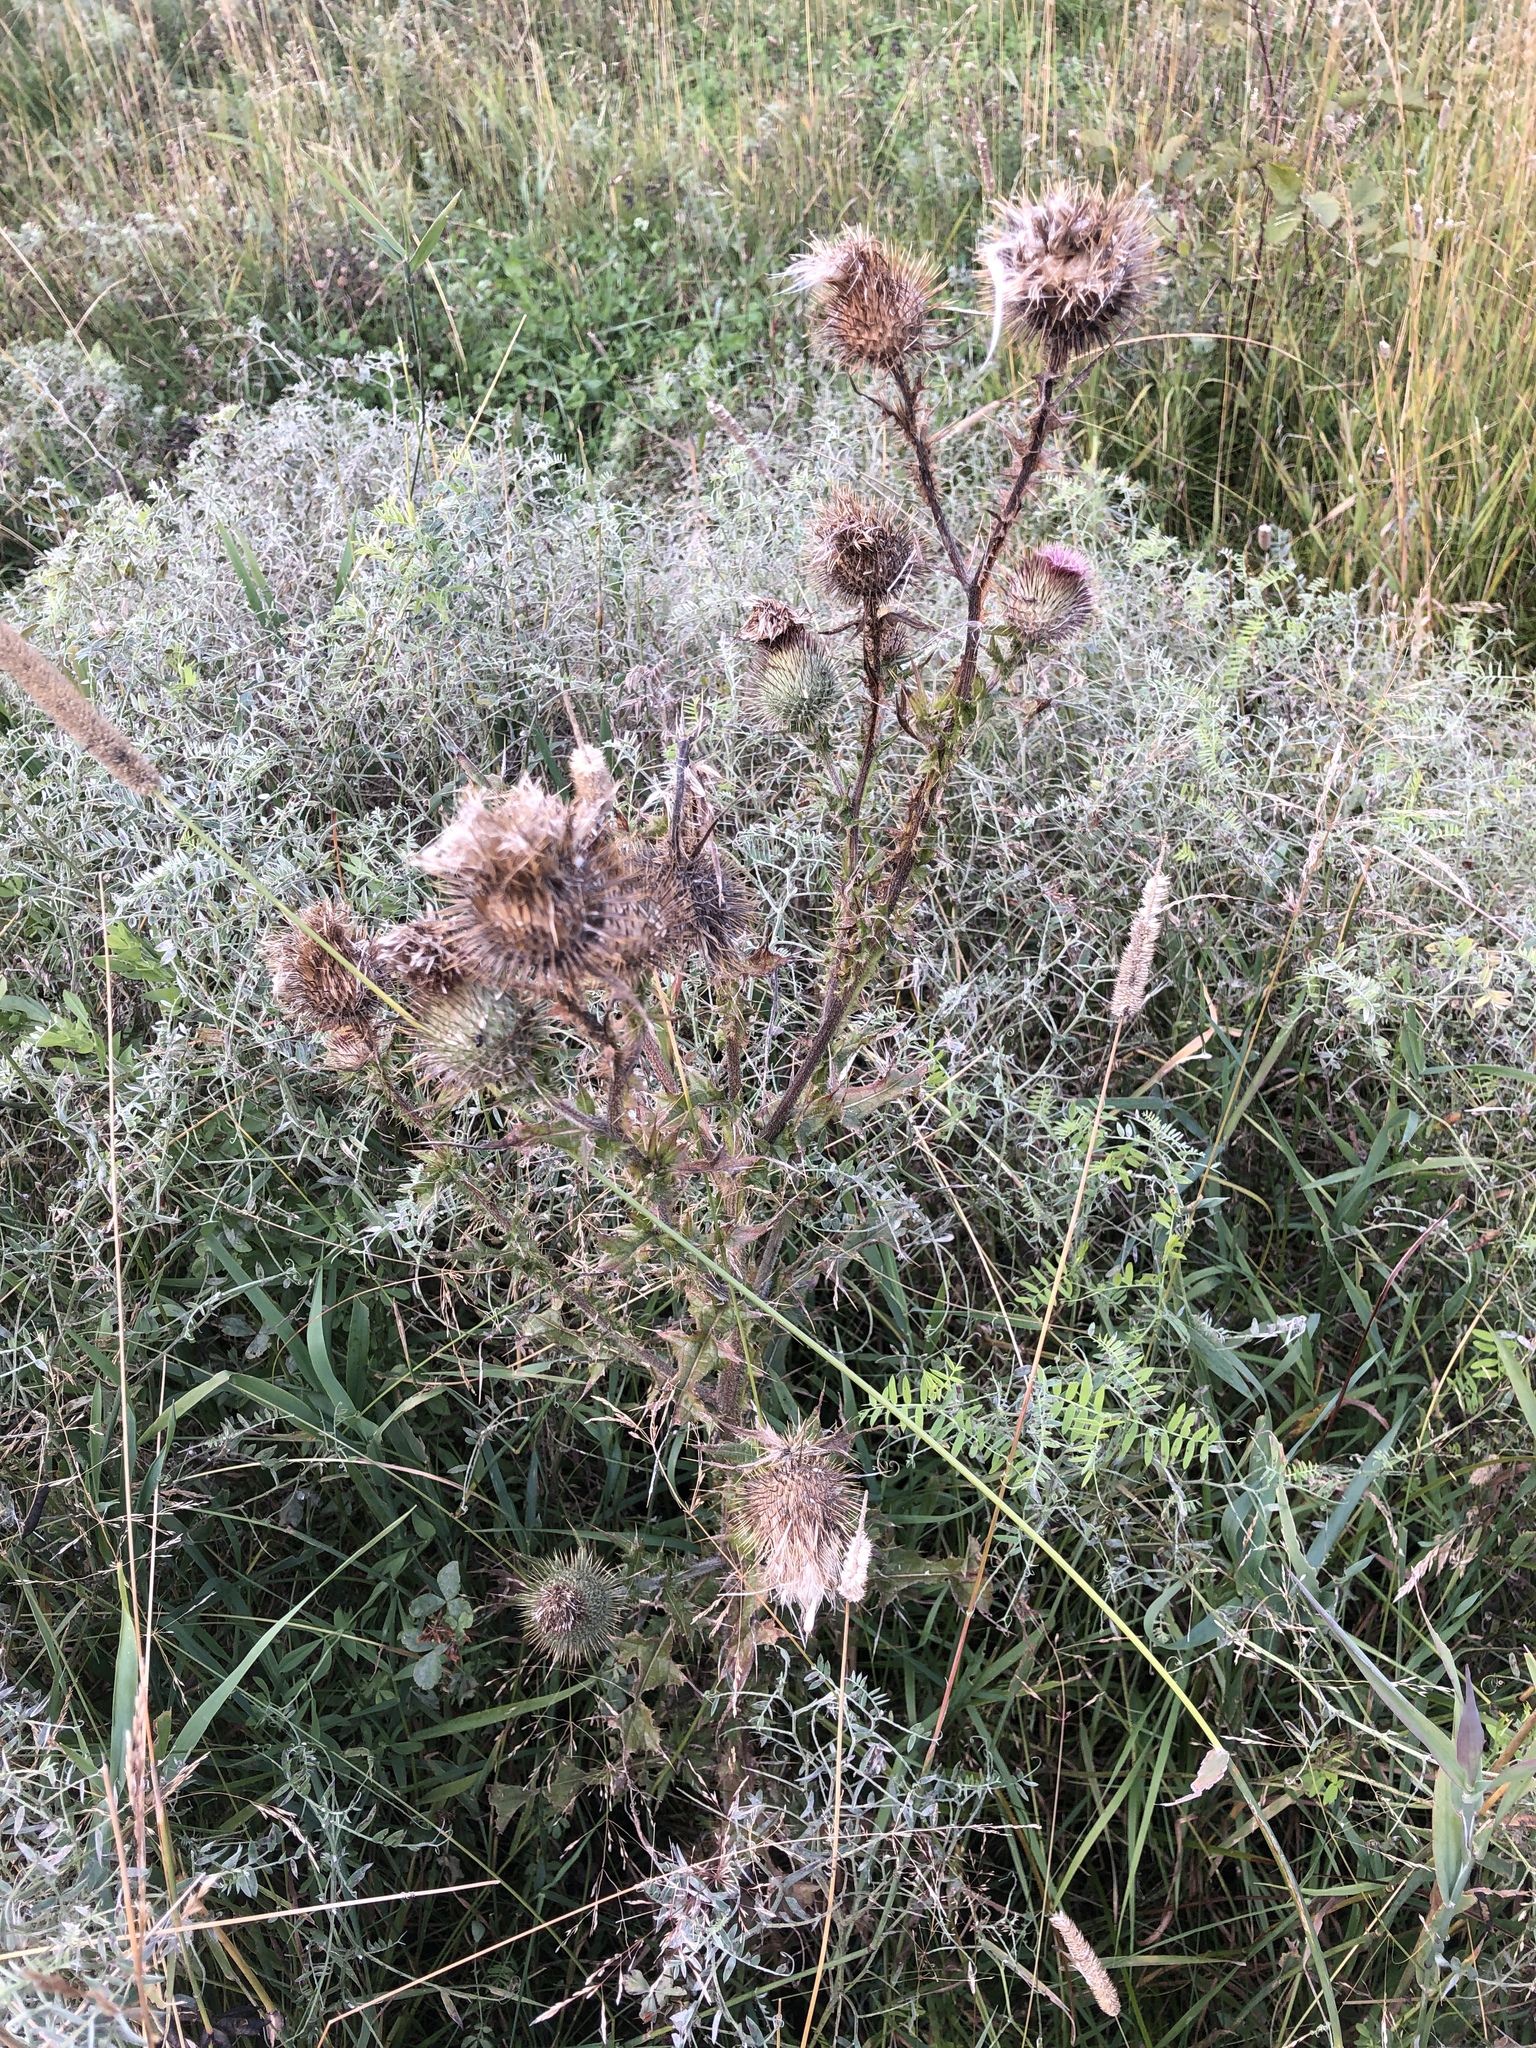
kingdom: Plantae
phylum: Tracheophyta
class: Magnoliopsida
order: Asterales
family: Asteraceae
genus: Cirsium
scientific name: Cirsium vulgare
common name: Bull thistle
